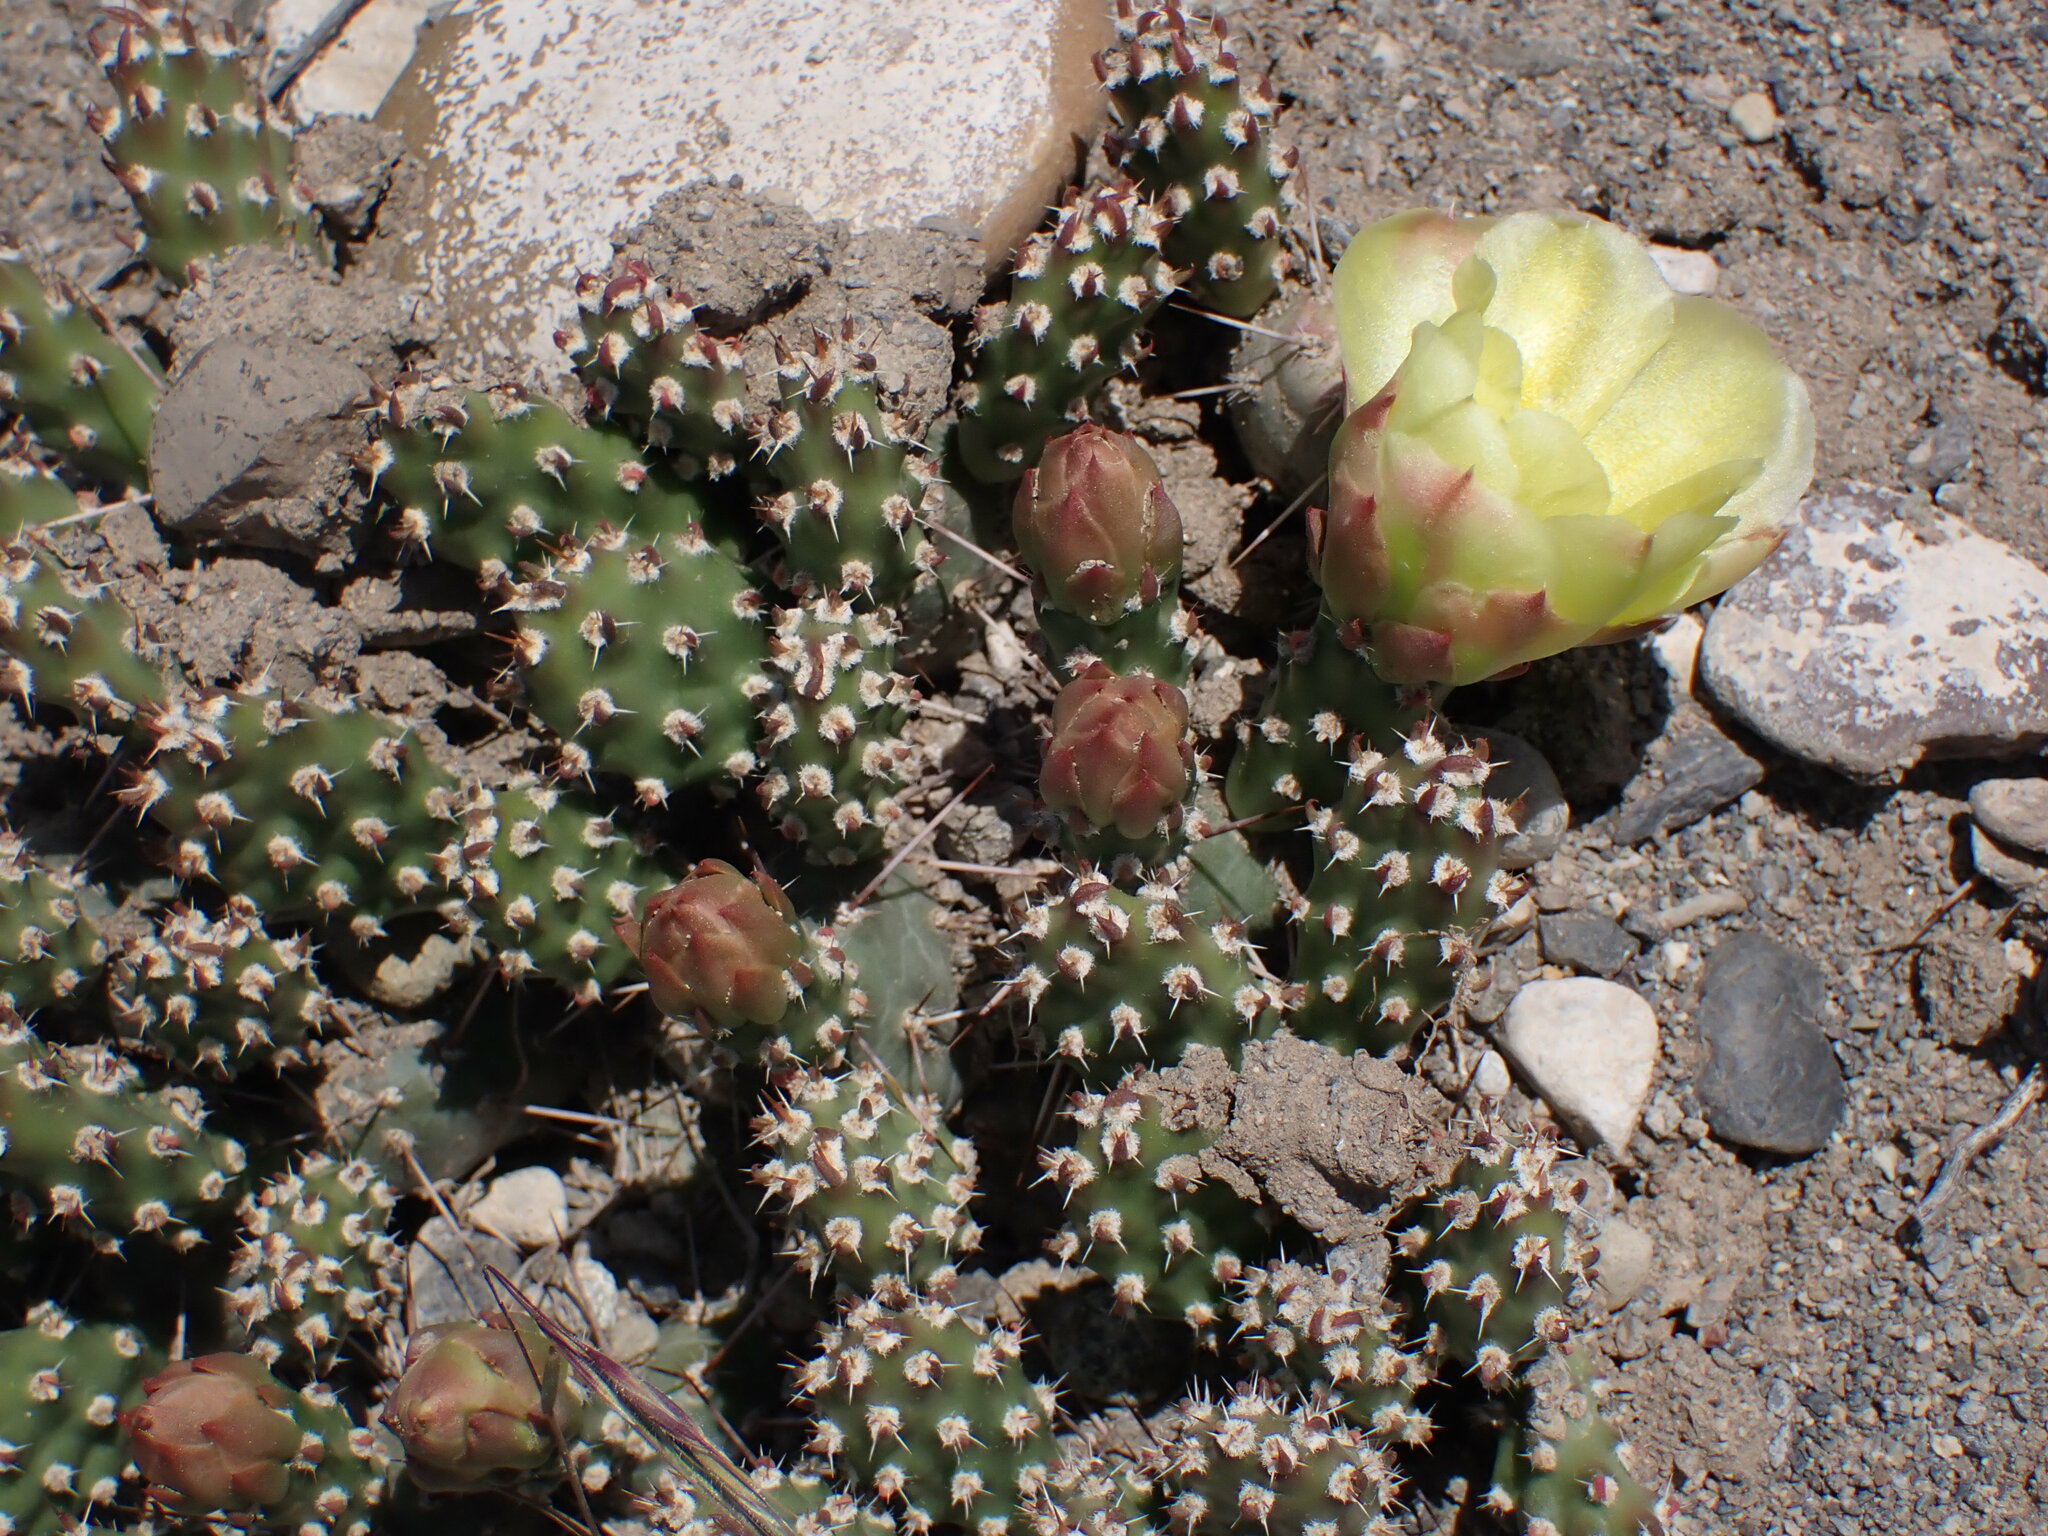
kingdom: Plantae
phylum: Tracheophyta
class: Magnoliopsida
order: Caryophyllales
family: Cactaceae
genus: Opuntia
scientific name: Opuntia fragilis
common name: Brittle cactus
